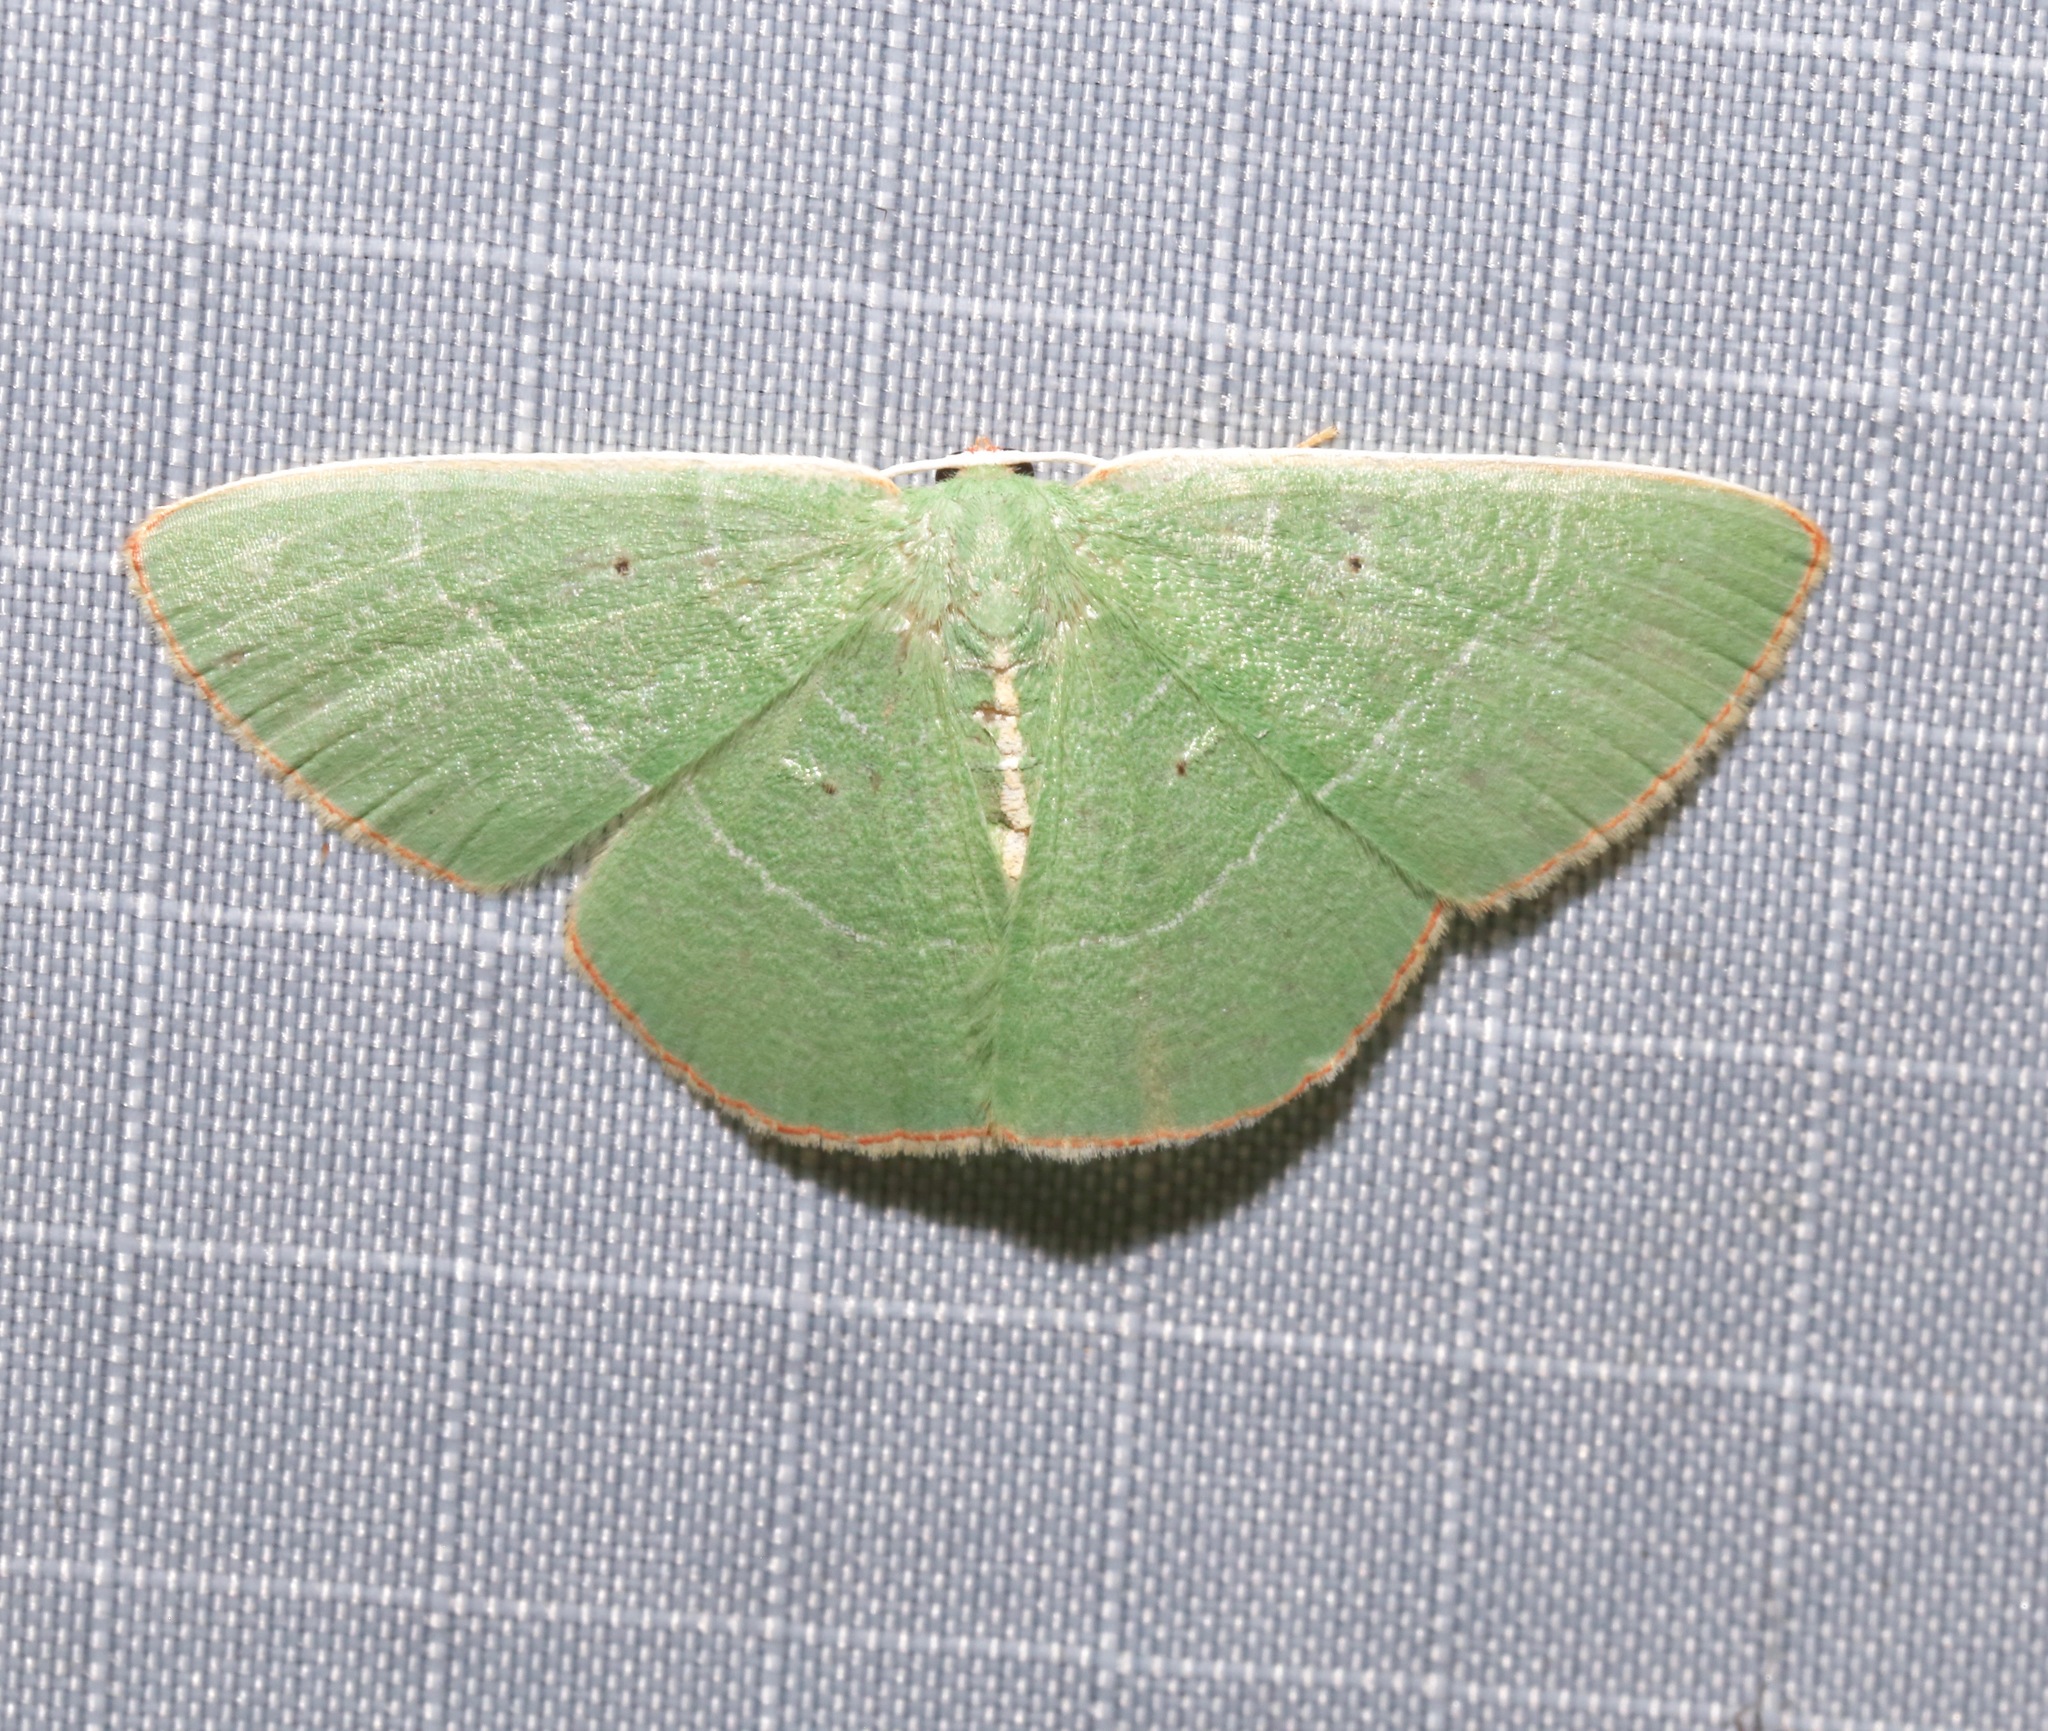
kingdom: Animalia
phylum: Arthropoda
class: Insecta
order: Lepidoptera
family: Geometridae
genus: Nemoria
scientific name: Nemoria bifilata
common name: White-barred emerald moth
